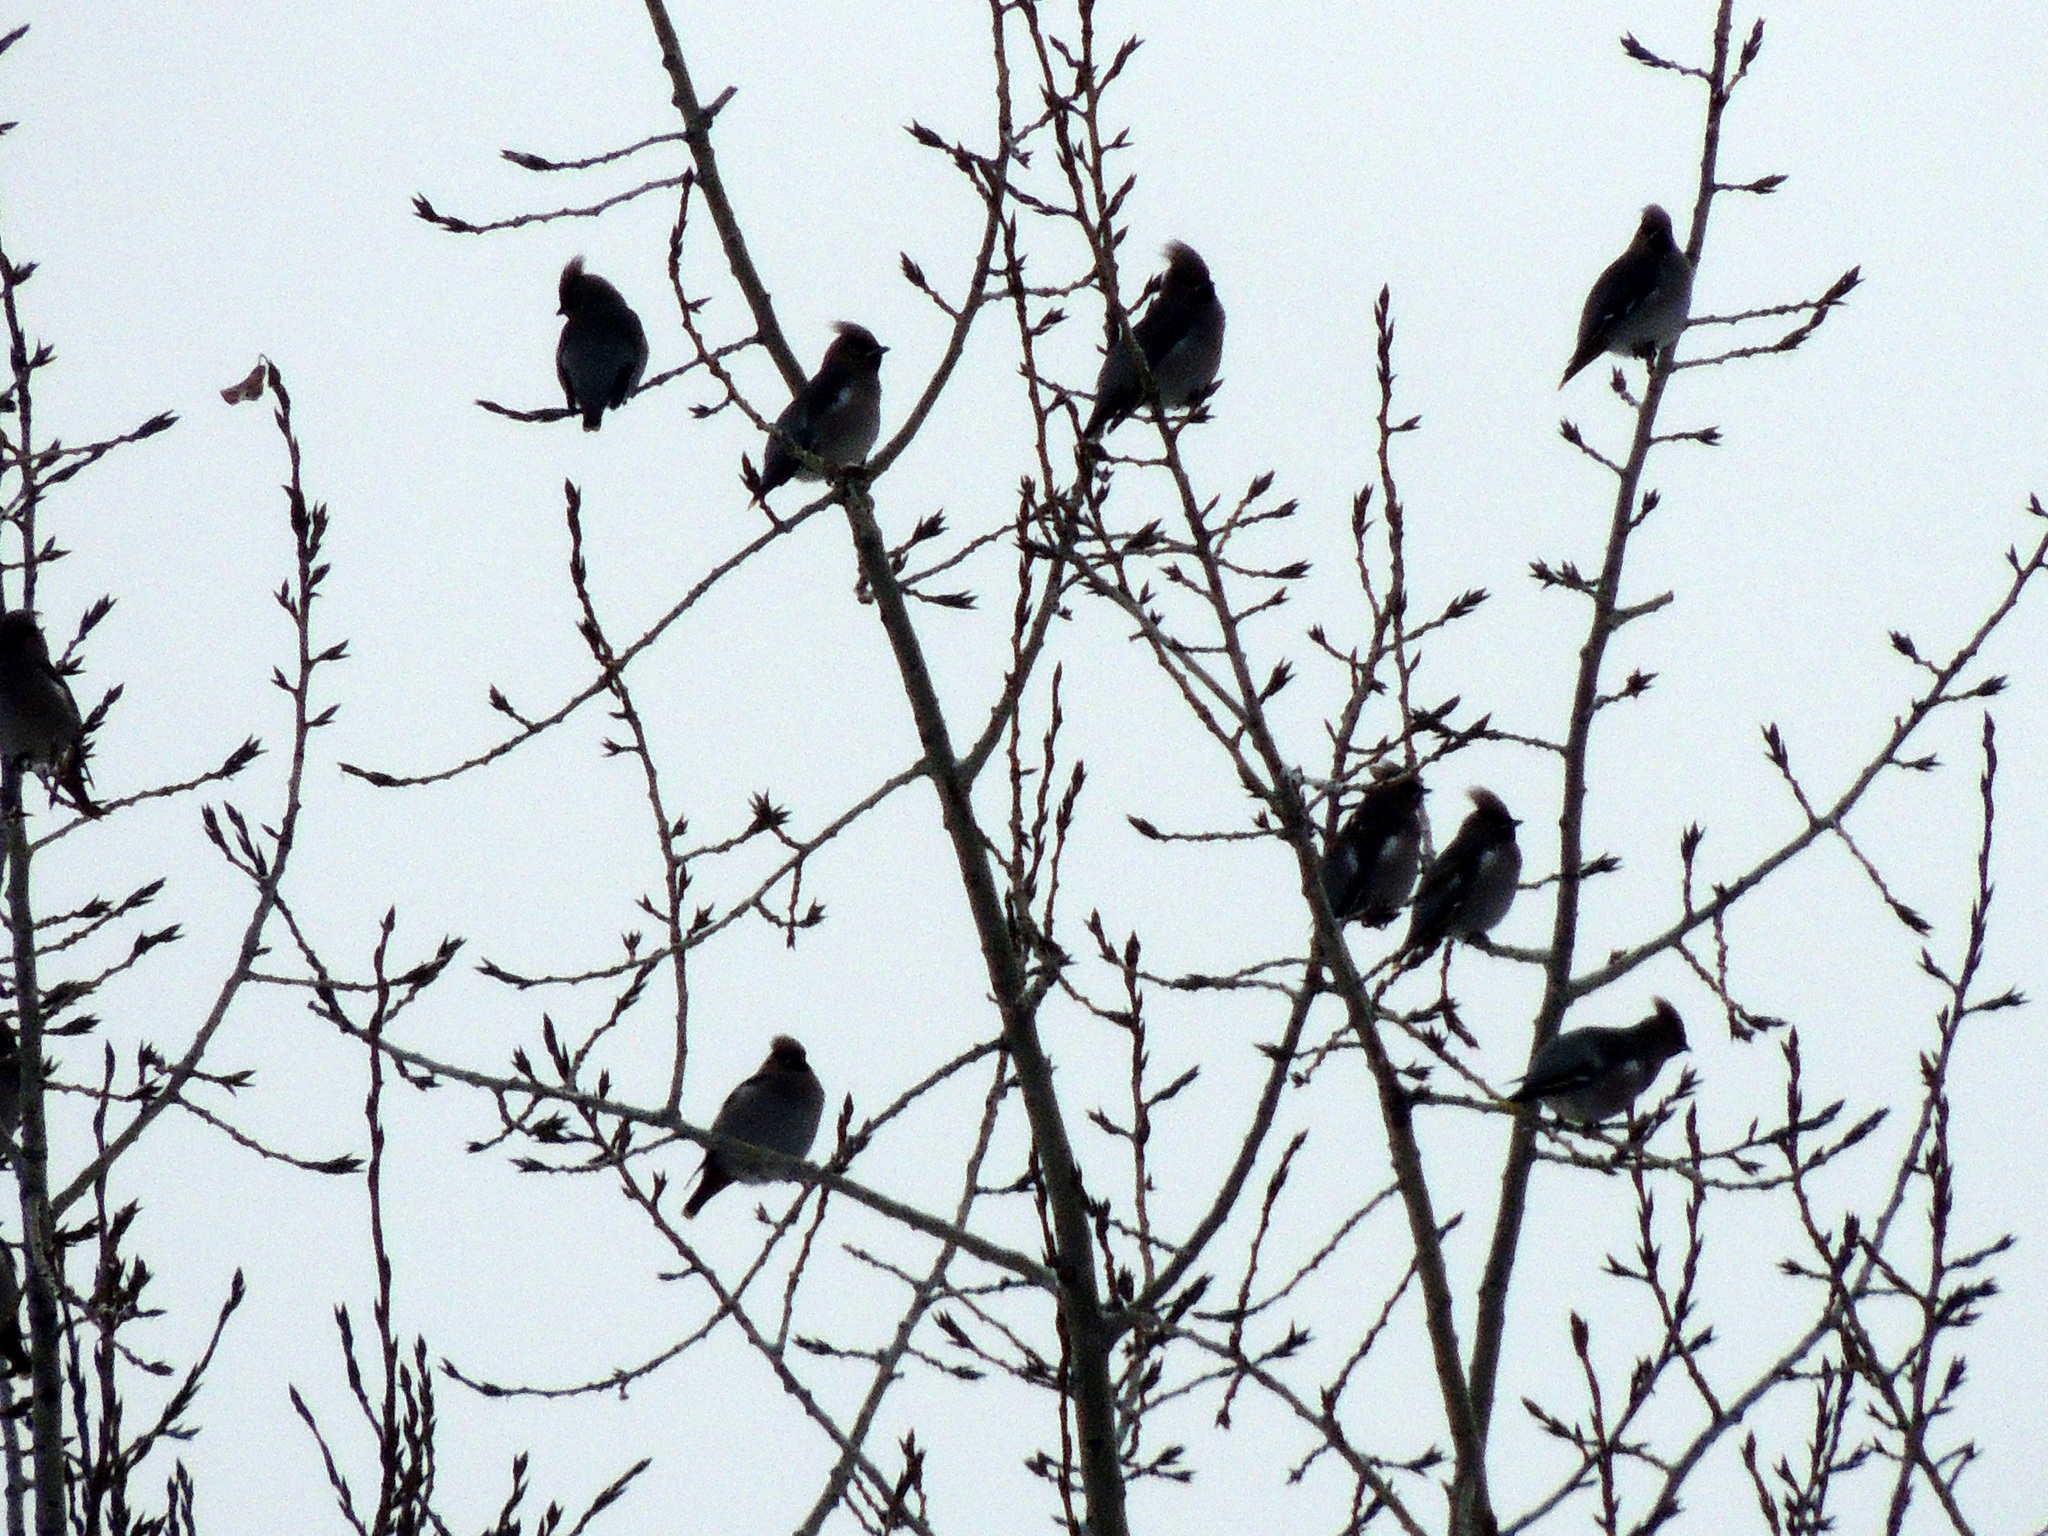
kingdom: Animalia
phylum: Chordata
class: Aves
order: Passeriformes
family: Bombycillidae
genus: Bombycilla
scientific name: Bombycilla garrulus
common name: Bohemian waxwing
